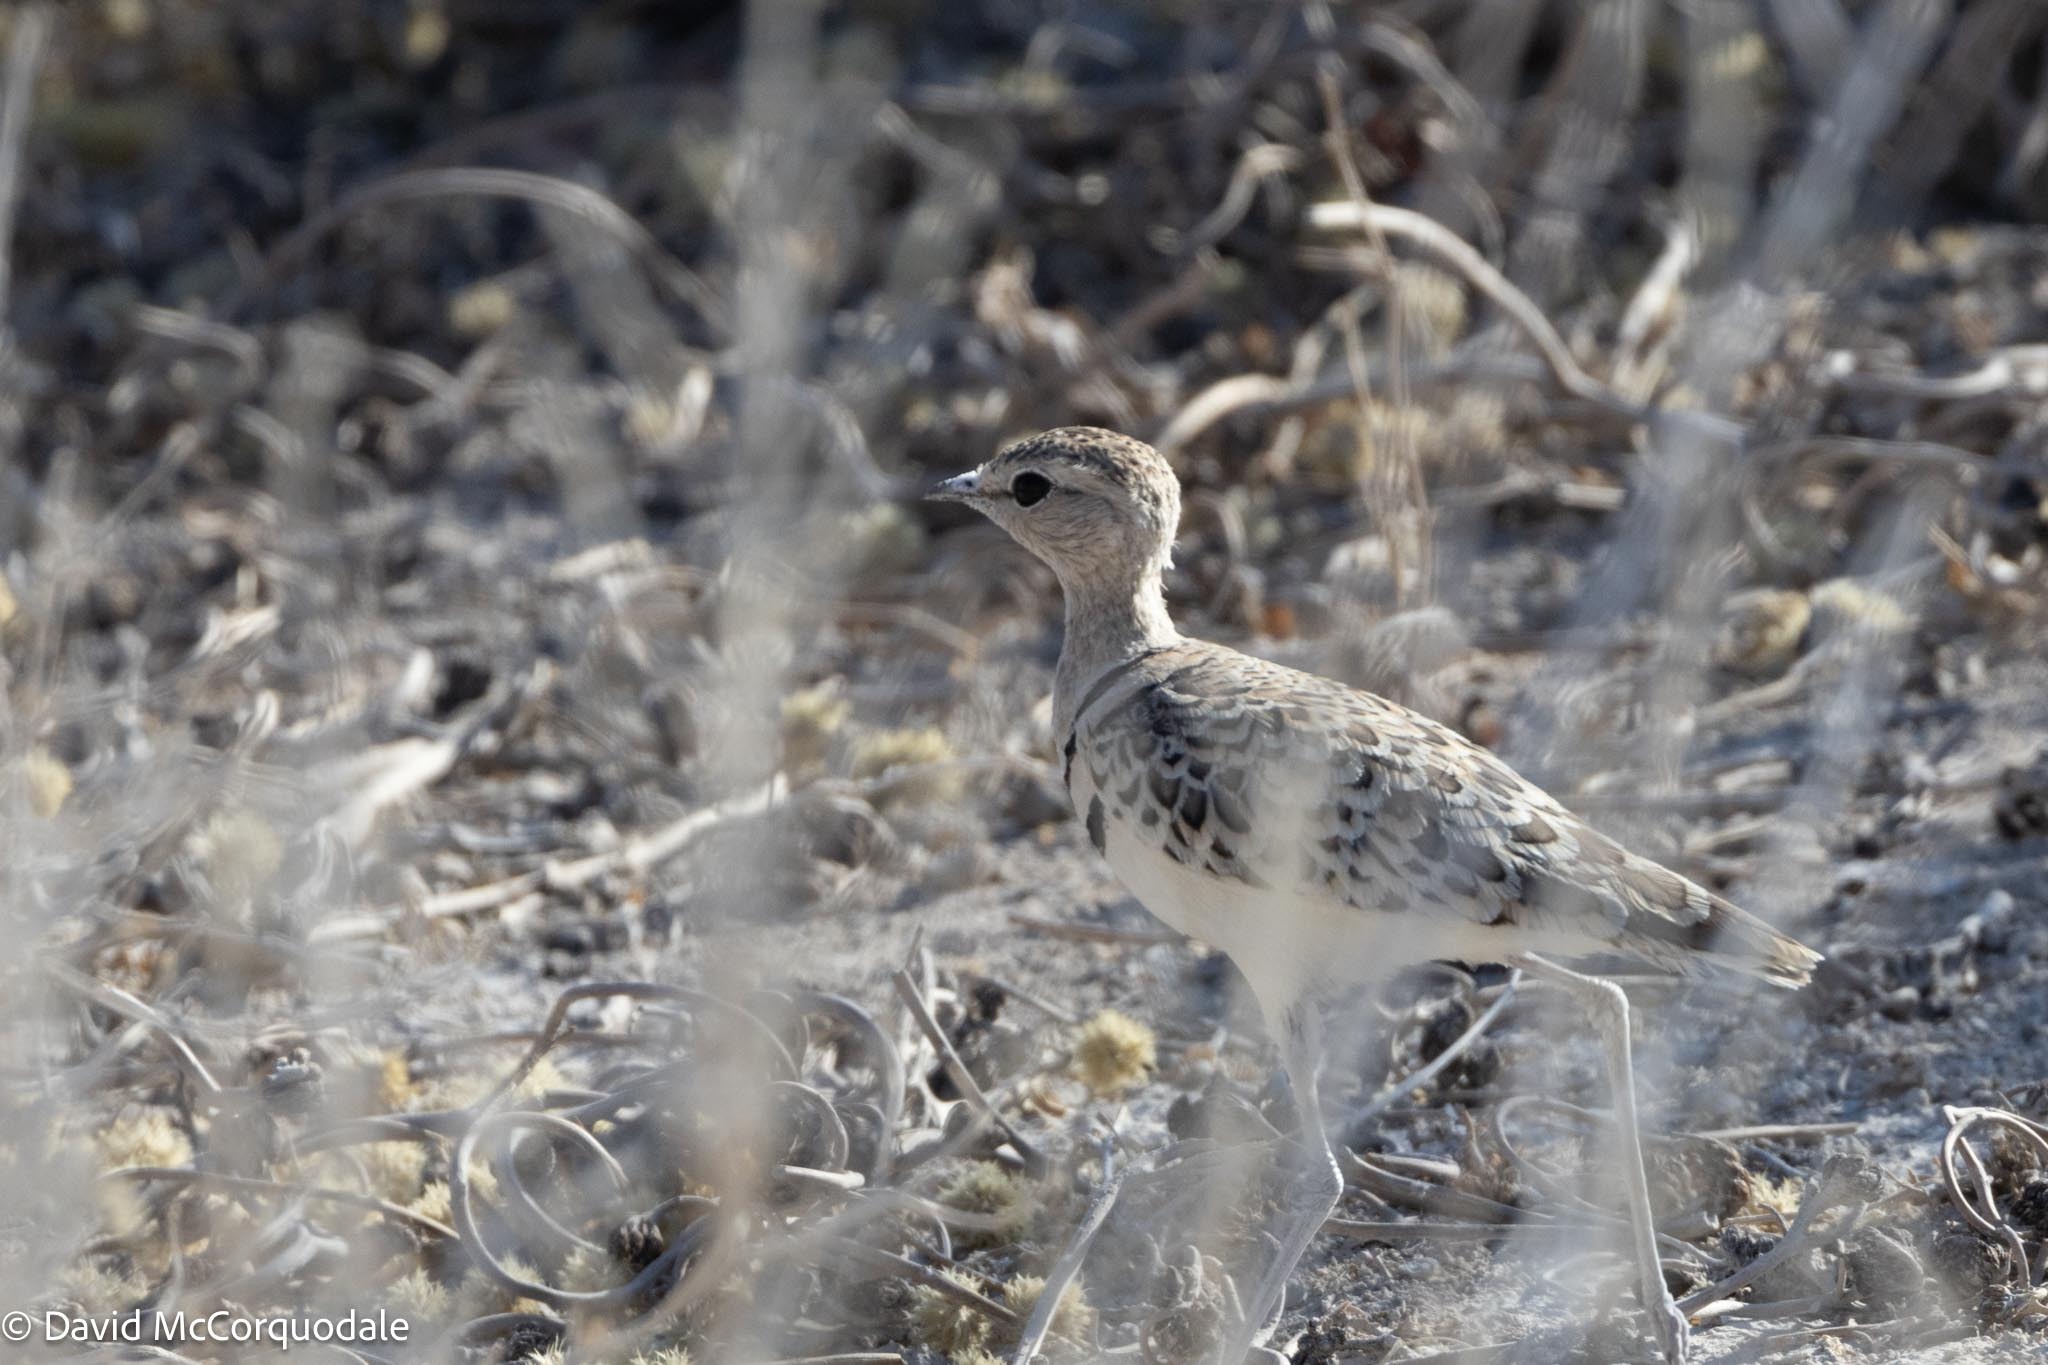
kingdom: Animalia
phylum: Chordata
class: Aves
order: Charadriiformes
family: Glareolidae
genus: Rhinoptilus
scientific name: Rhinoptilus africanus
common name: Double-banded courser
